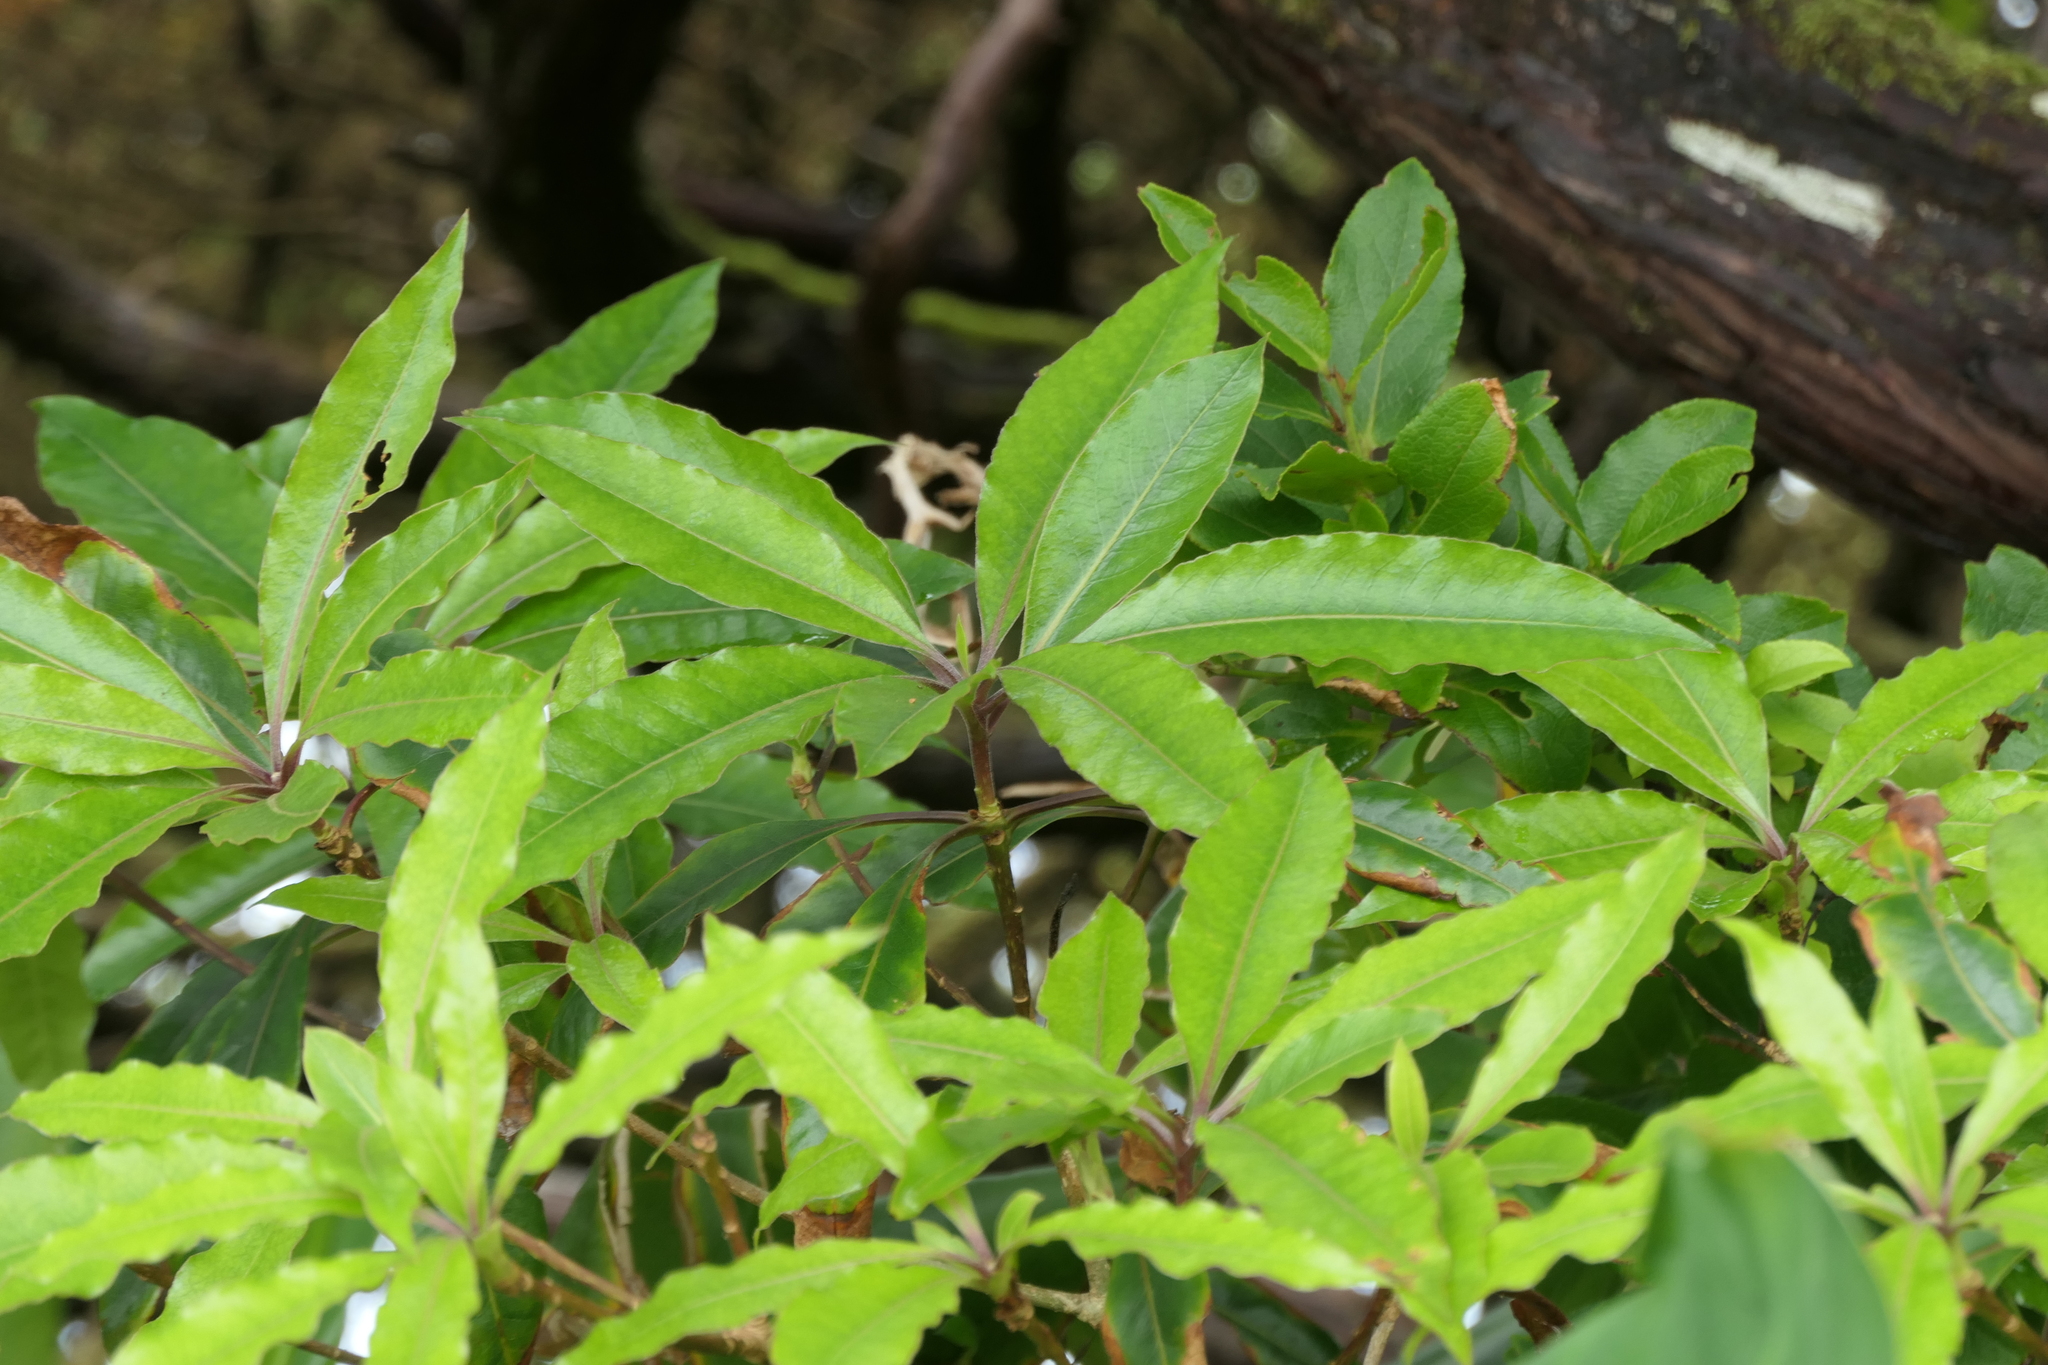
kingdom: Plantae
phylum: Tracheophyta
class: Magnoliopsida
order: Apiales
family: Pittosporaceae
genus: Pittosporum
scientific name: Pittosporum undulatum
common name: Australian cheesewood
